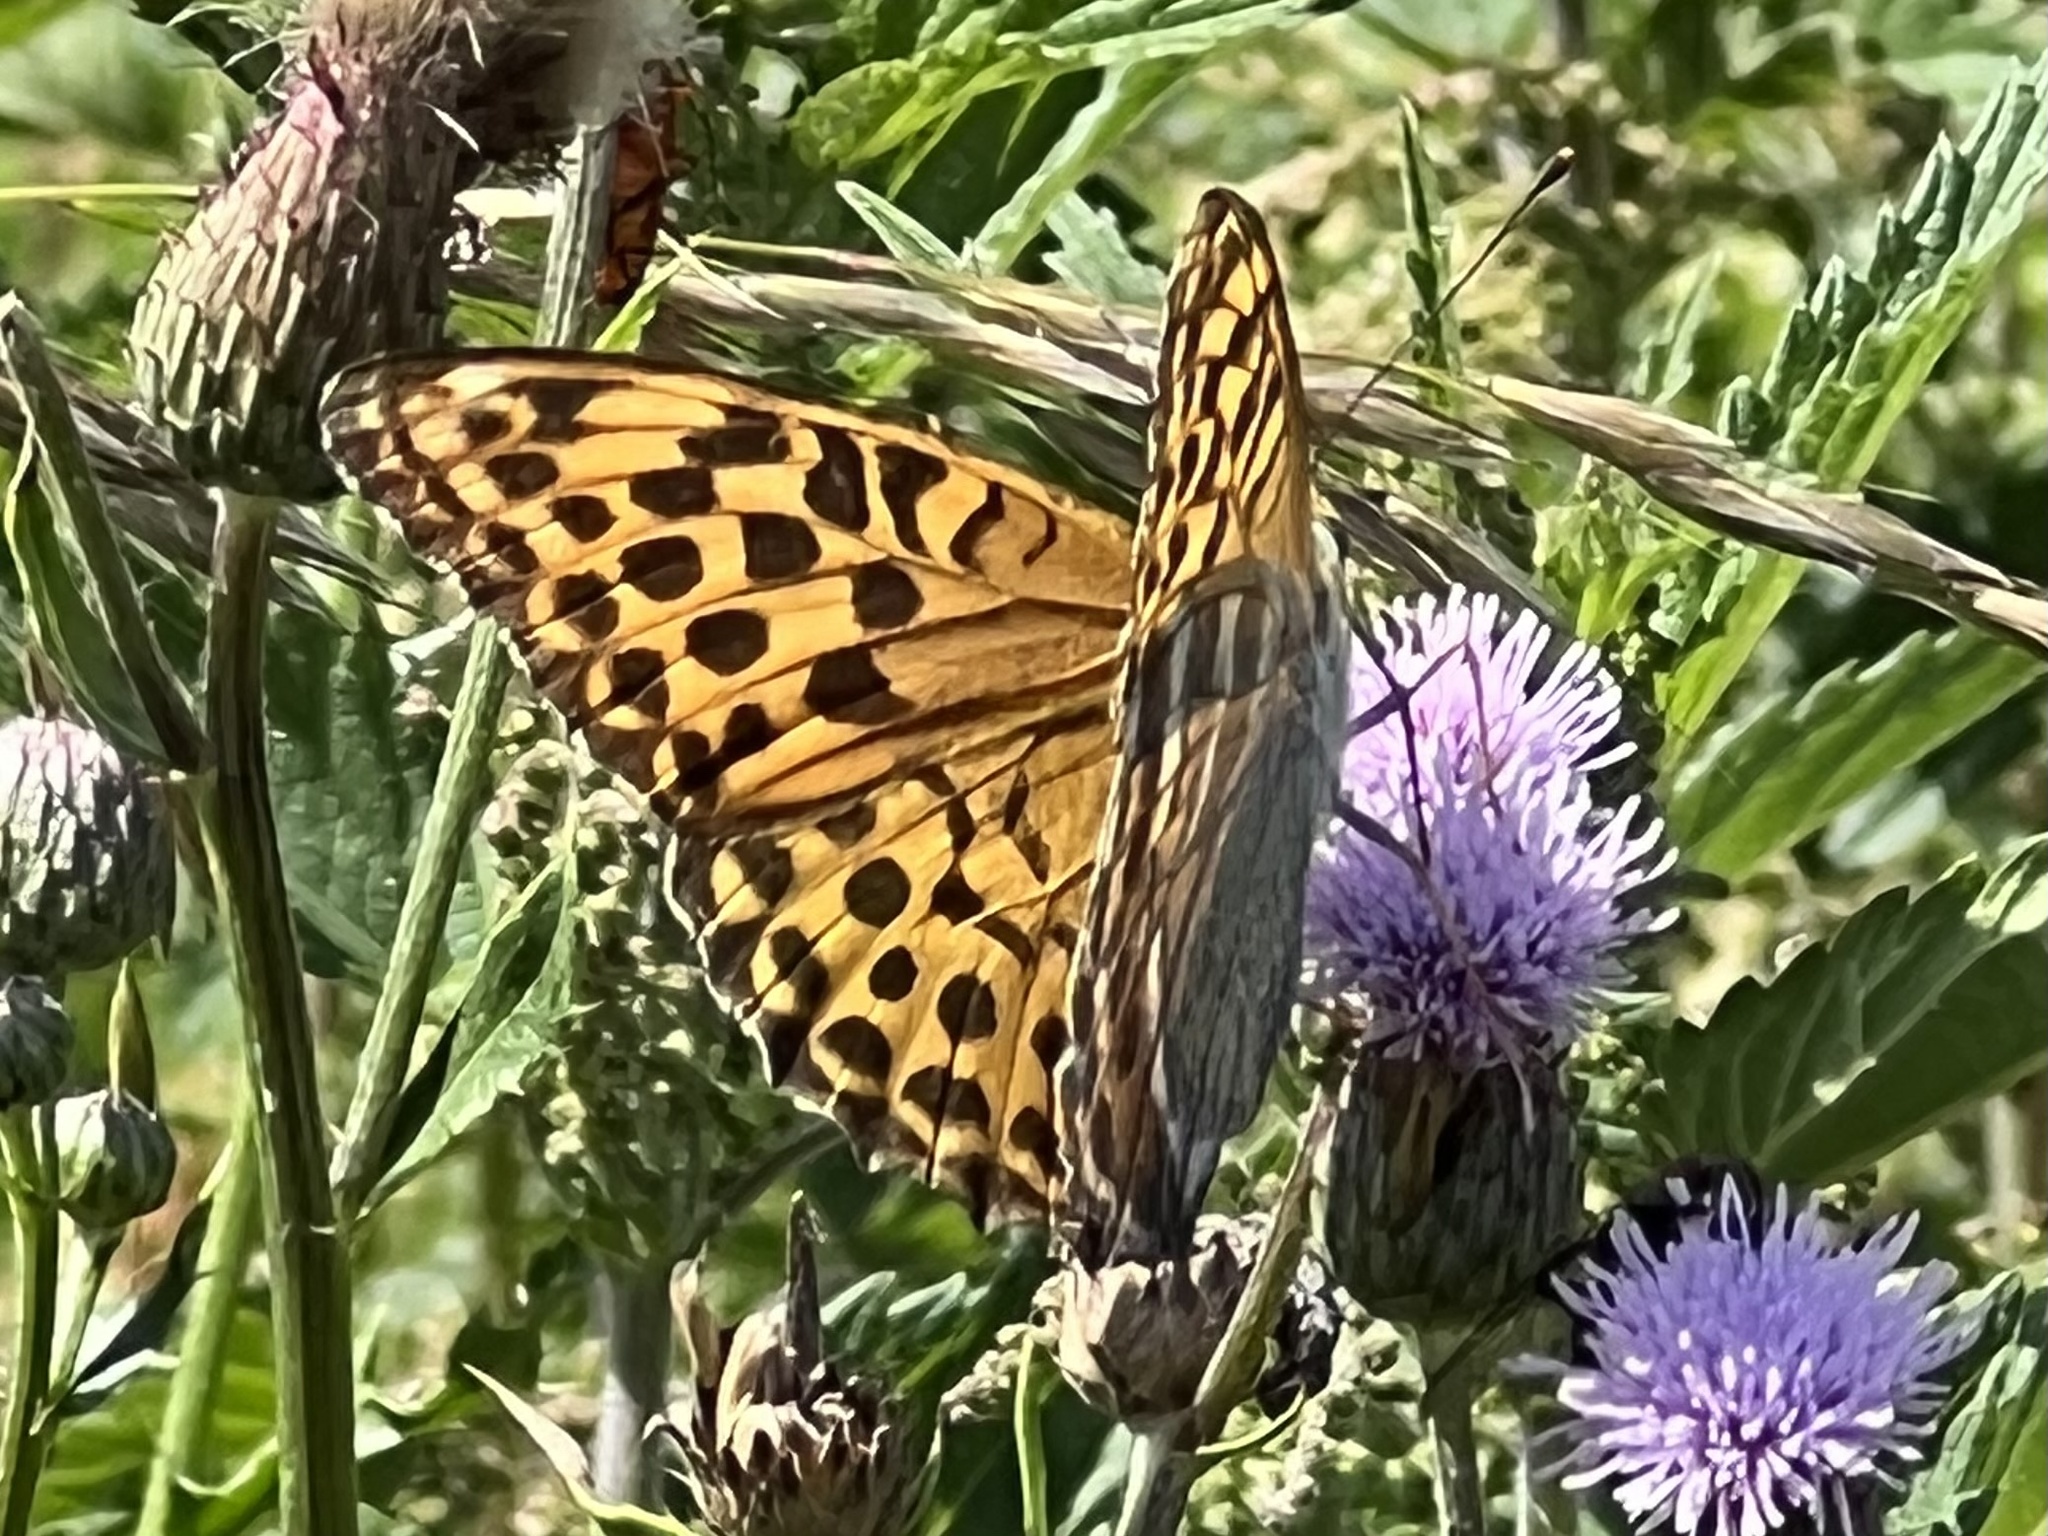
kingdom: Animalia
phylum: Arthropoda
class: Insecta
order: Lepidoptera
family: Nymphalidae
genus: Argynnis
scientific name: Argynnis paphia
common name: Silver-washed fritillary
